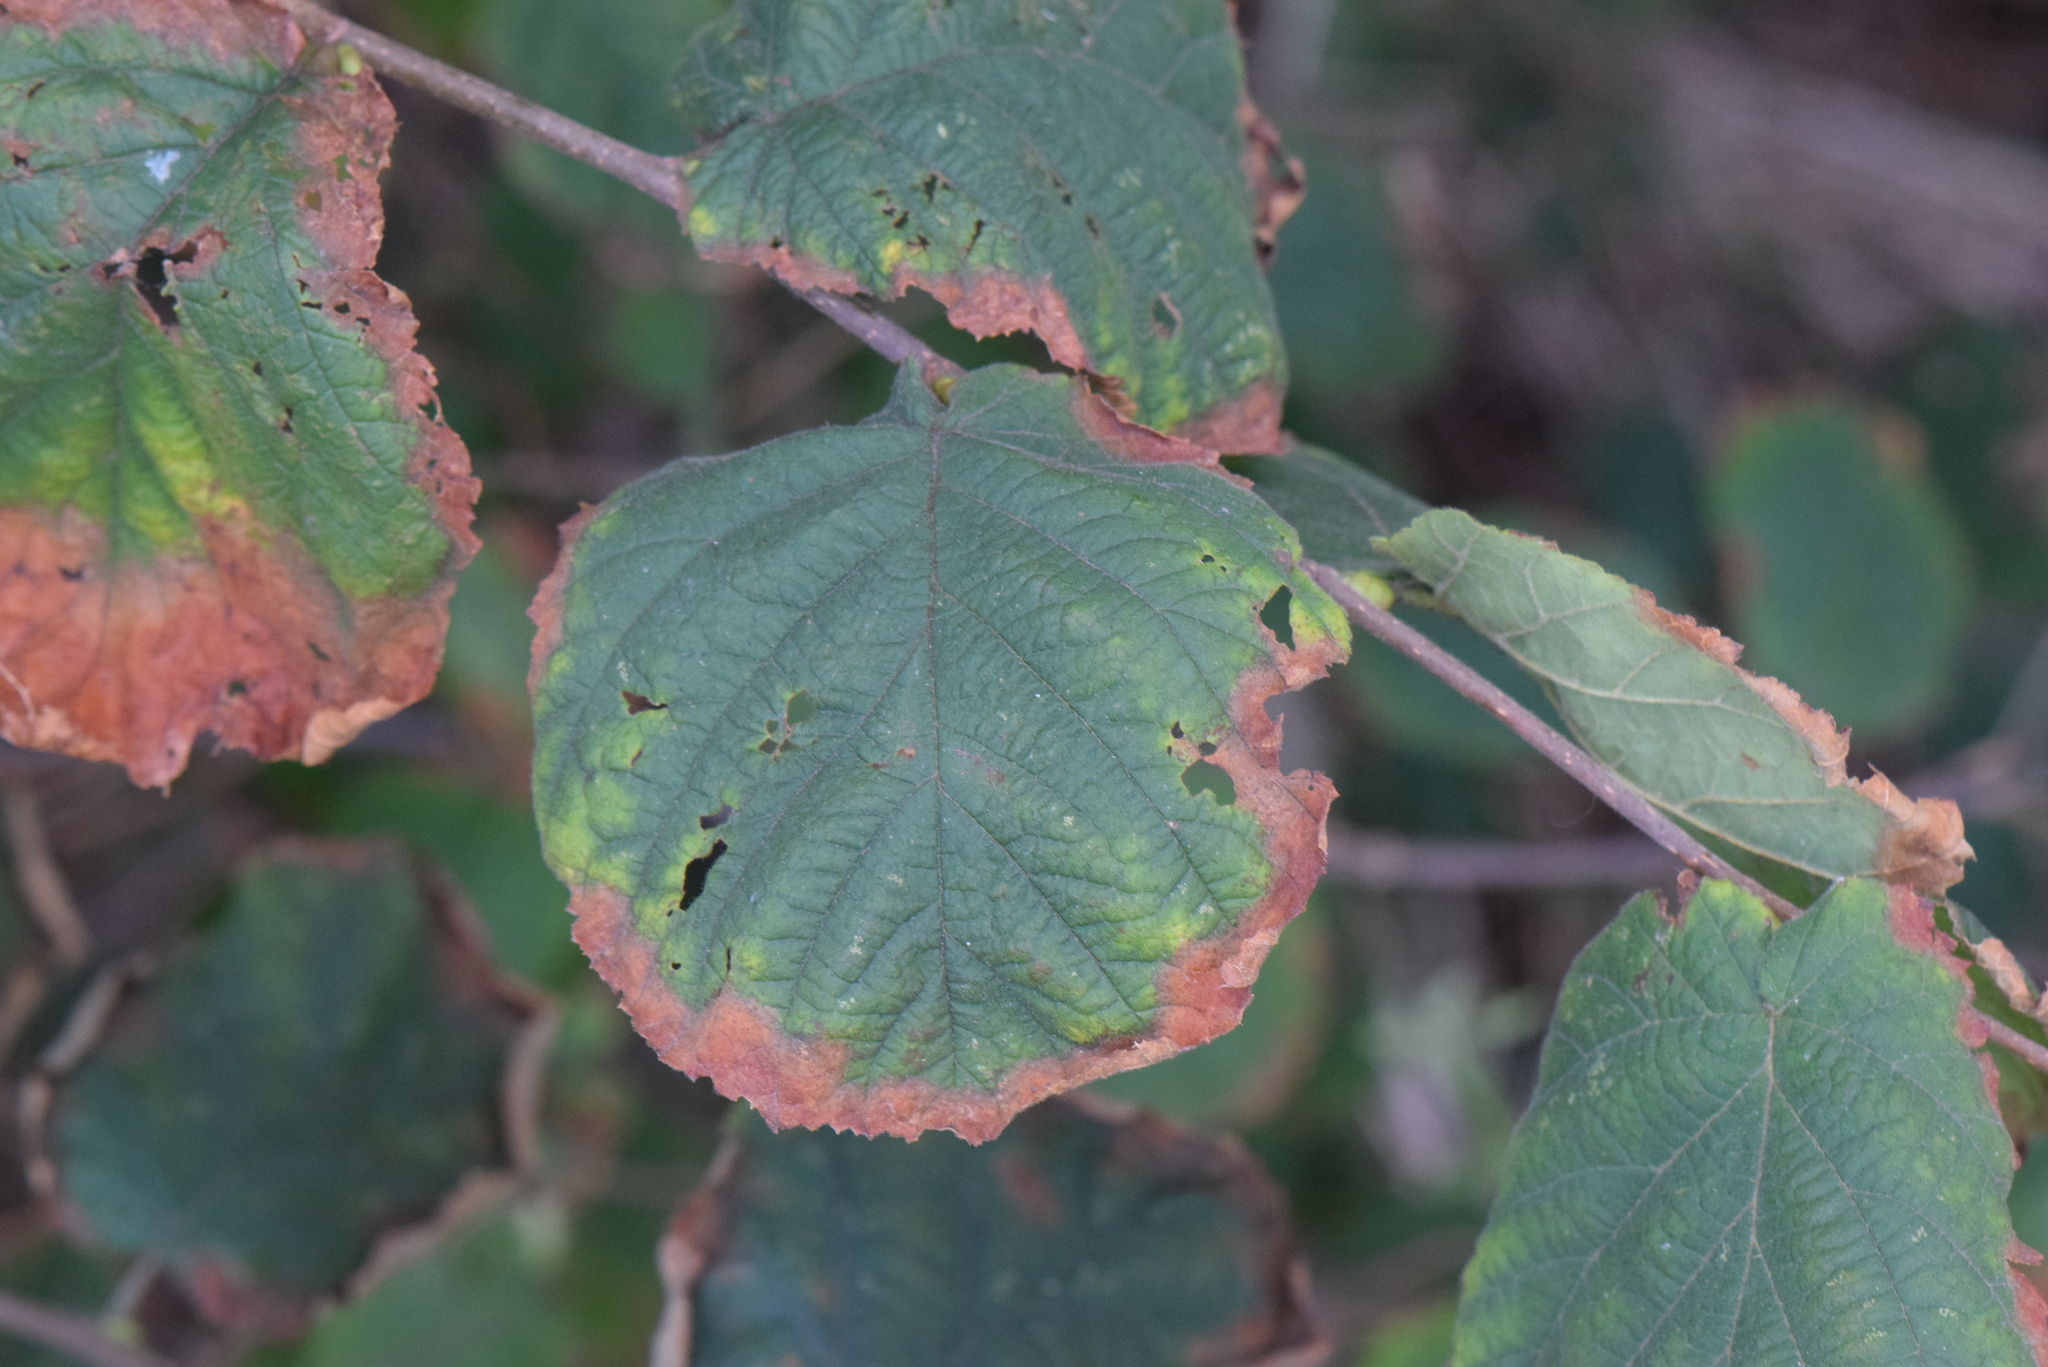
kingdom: Plantae
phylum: Tracheophyta
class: Magnoliopsida
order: Fagales
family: Betulaceae
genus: Corylus
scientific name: Corylus avellana
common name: European hazel
